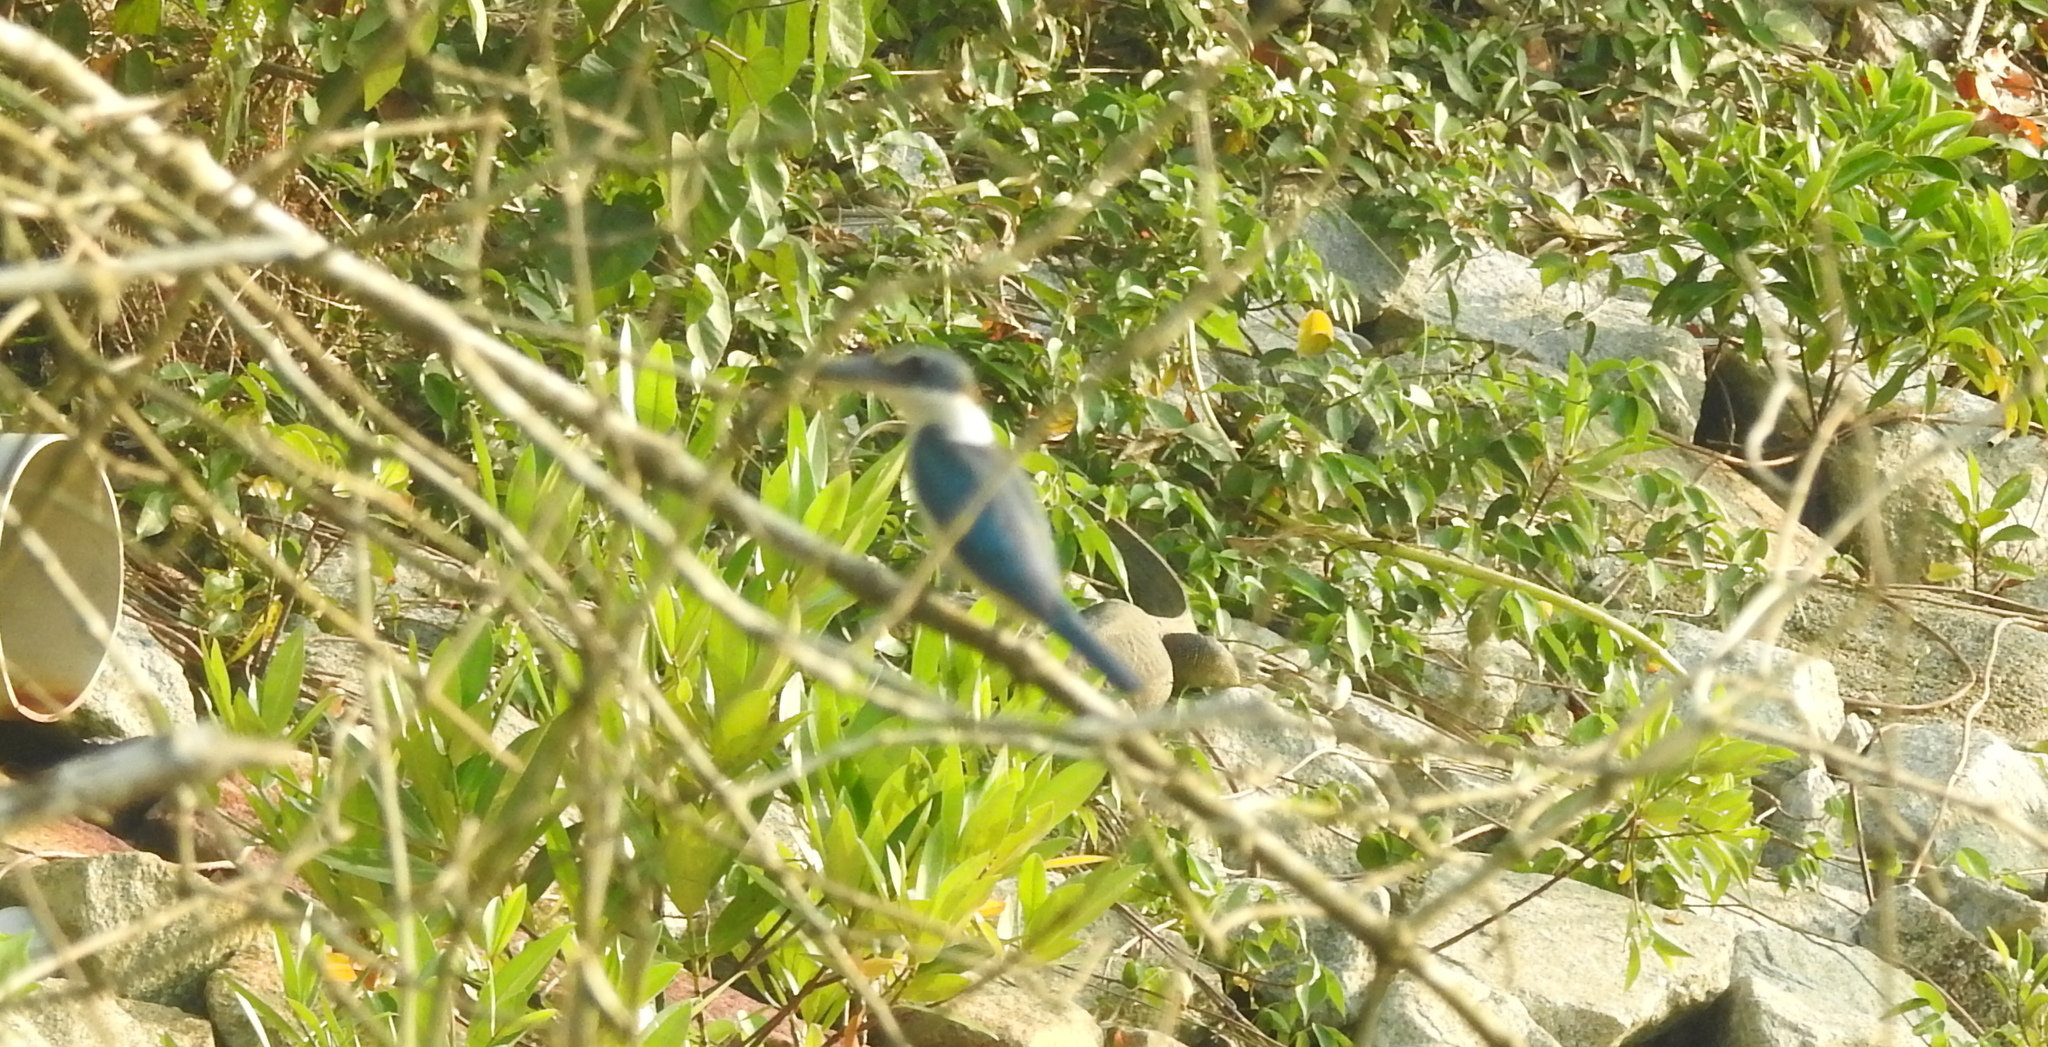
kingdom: Animalia
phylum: Chordata
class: Aves
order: Coraciiformes
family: Alcedinidae
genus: Todiramphus
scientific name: Todiramphus chloris
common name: Collared kingfisher
